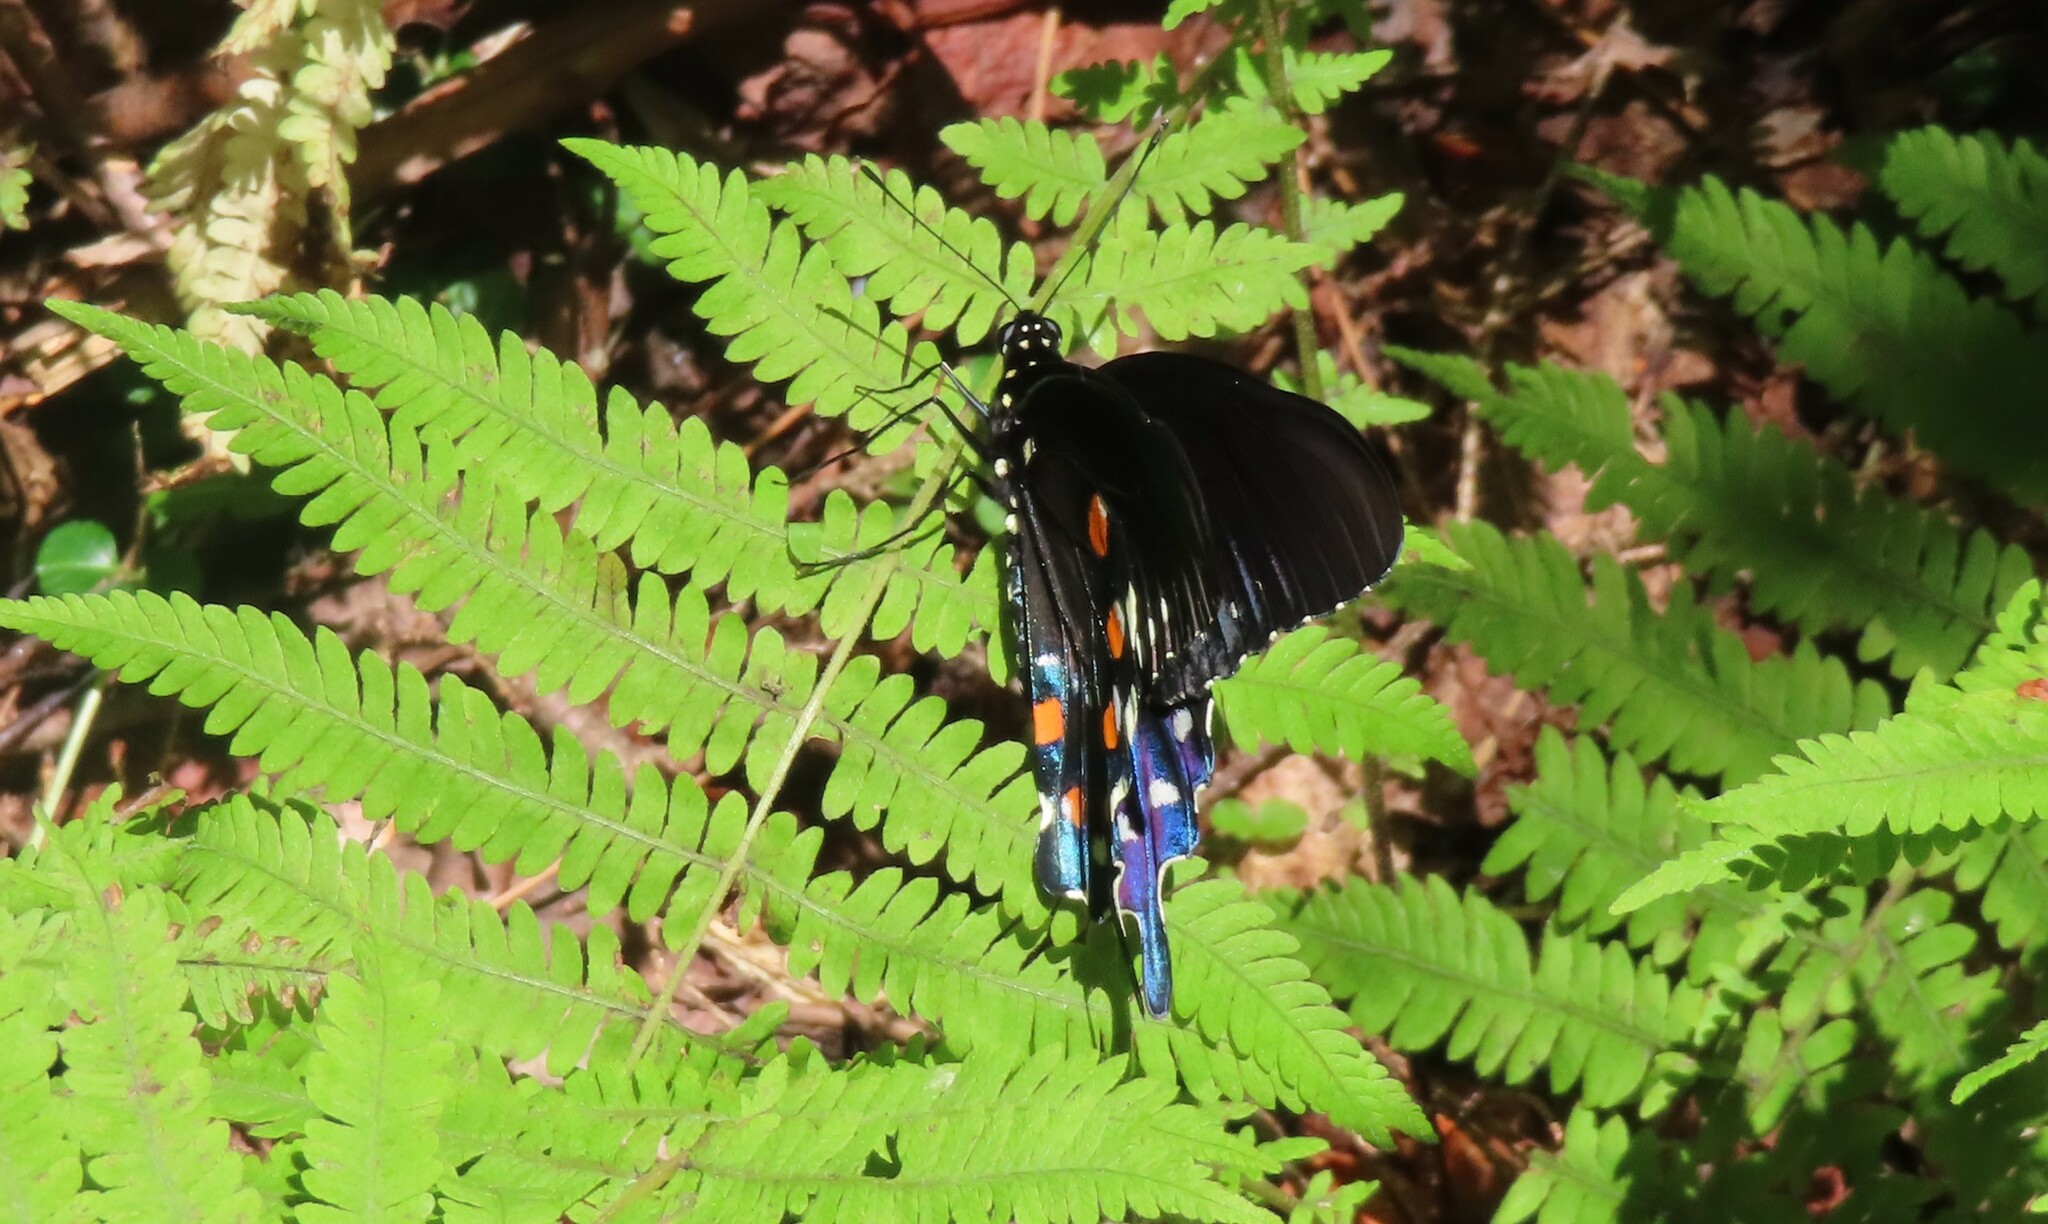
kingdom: Animalia
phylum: Arthropoda
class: Insecta
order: Lepidoptera
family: Papilionidae
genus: Battus
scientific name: Battus philenor
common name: Pipevine swallowtail
